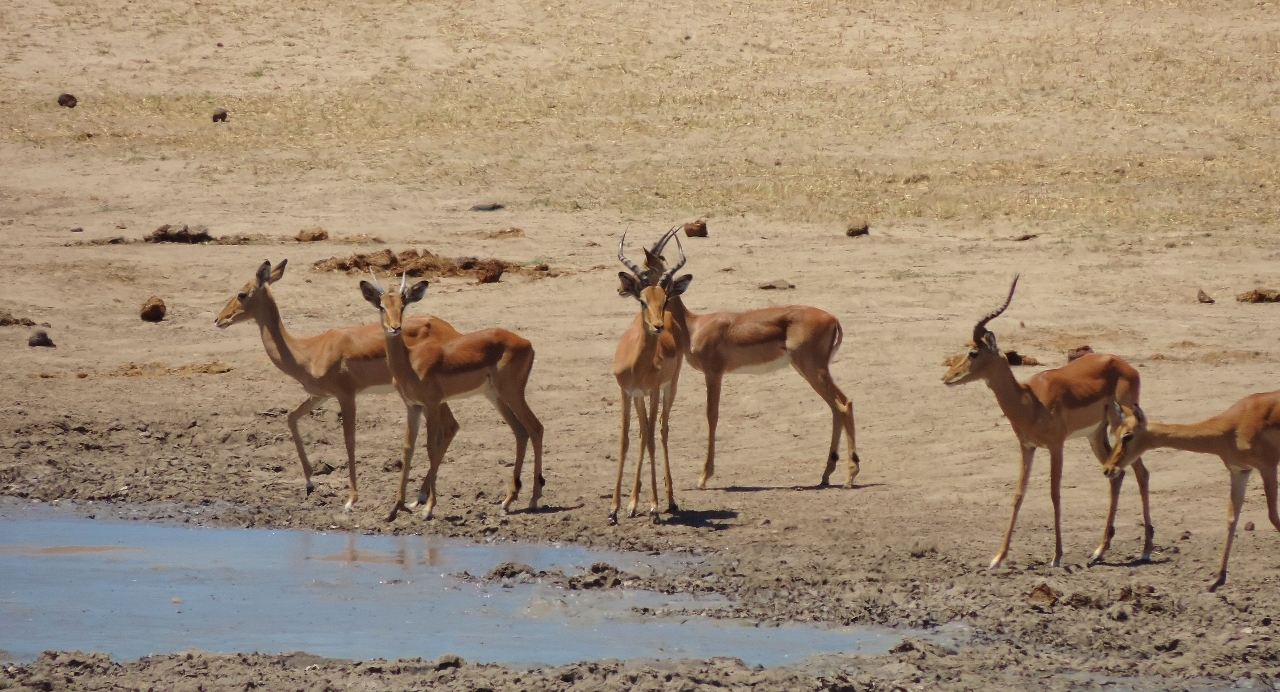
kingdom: Animalia
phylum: Chordata
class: Mammalia
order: Artiodactyla
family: Bovidae
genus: Aepyceros
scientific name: Aepyceros melampus
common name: Impala
